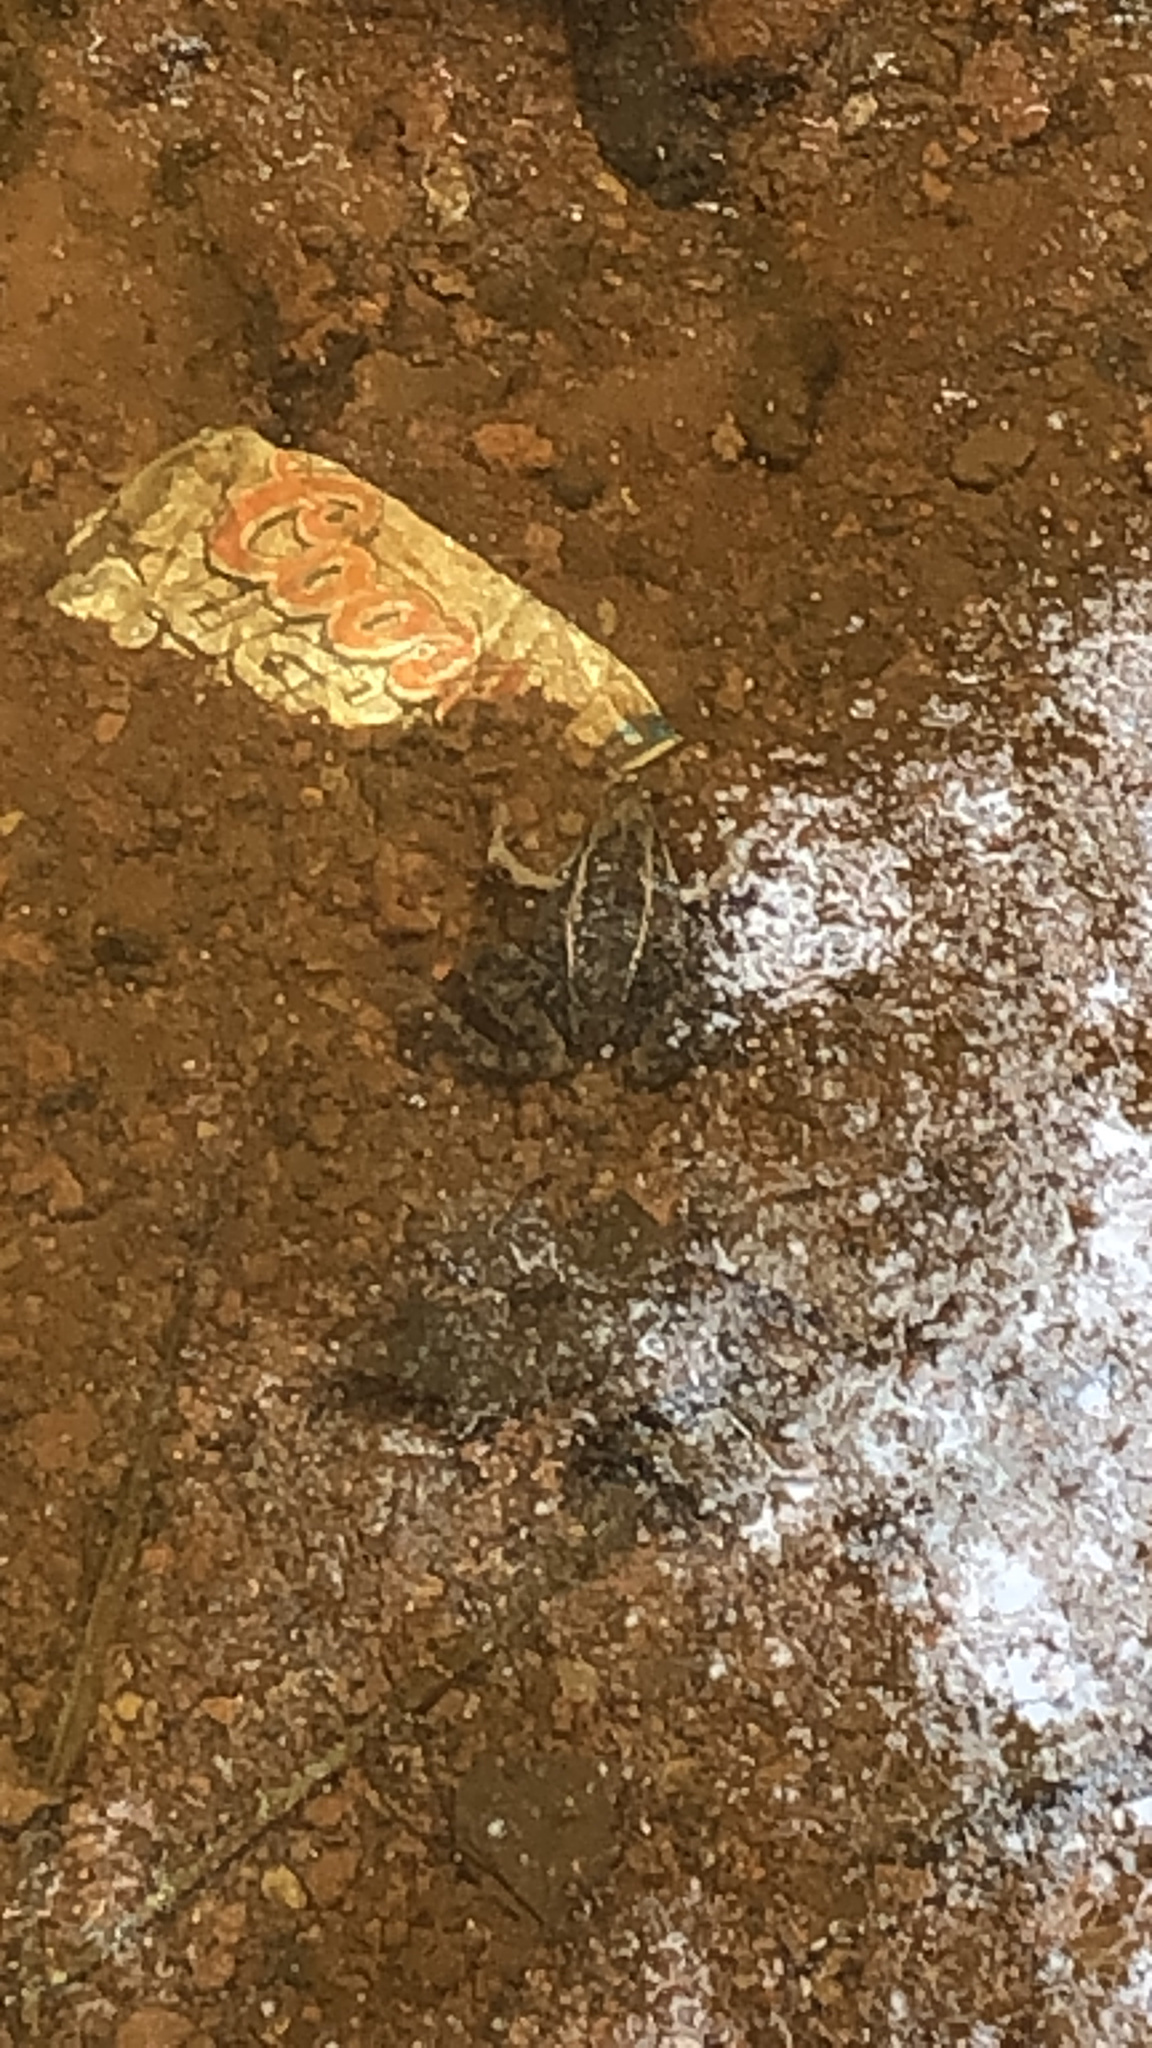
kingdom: Animalia
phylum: Chordata
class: Amphibia
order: Anura
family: Ranidae
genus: Lithobates
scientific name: Lithobates blairi
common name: Plains leopard frog
